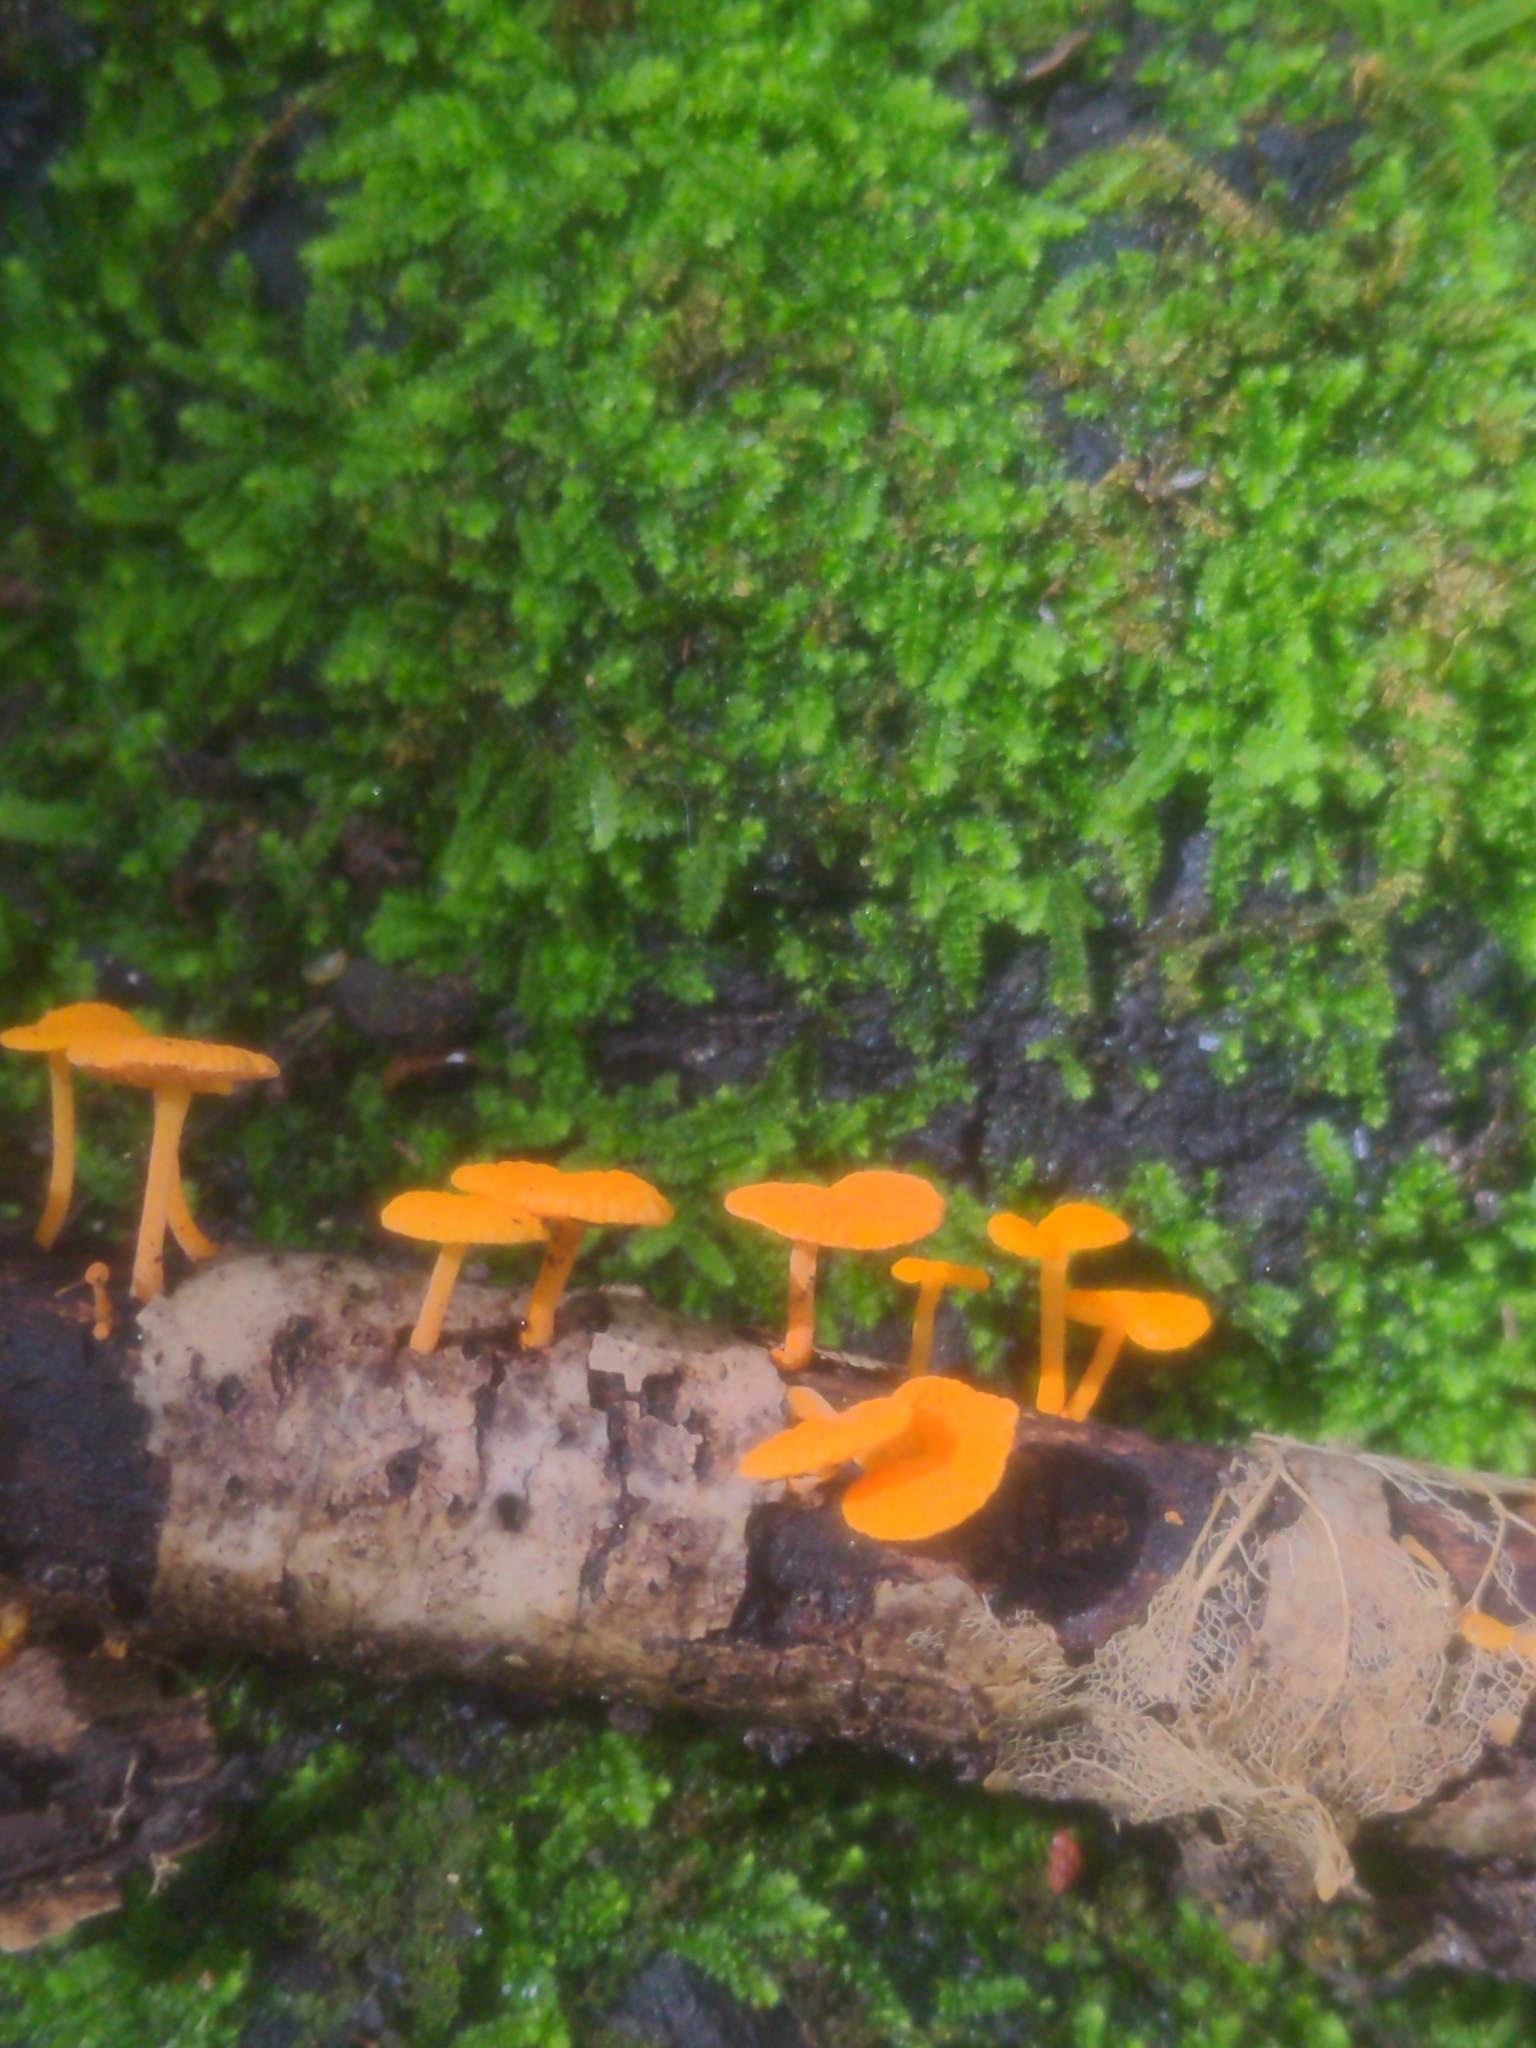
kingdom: Fungi
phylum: Basidiomycota
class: Agaricomycetes
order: Agaricales
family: Mycenaceae
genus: Favolaschia
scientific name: Favolaschia claudopus
